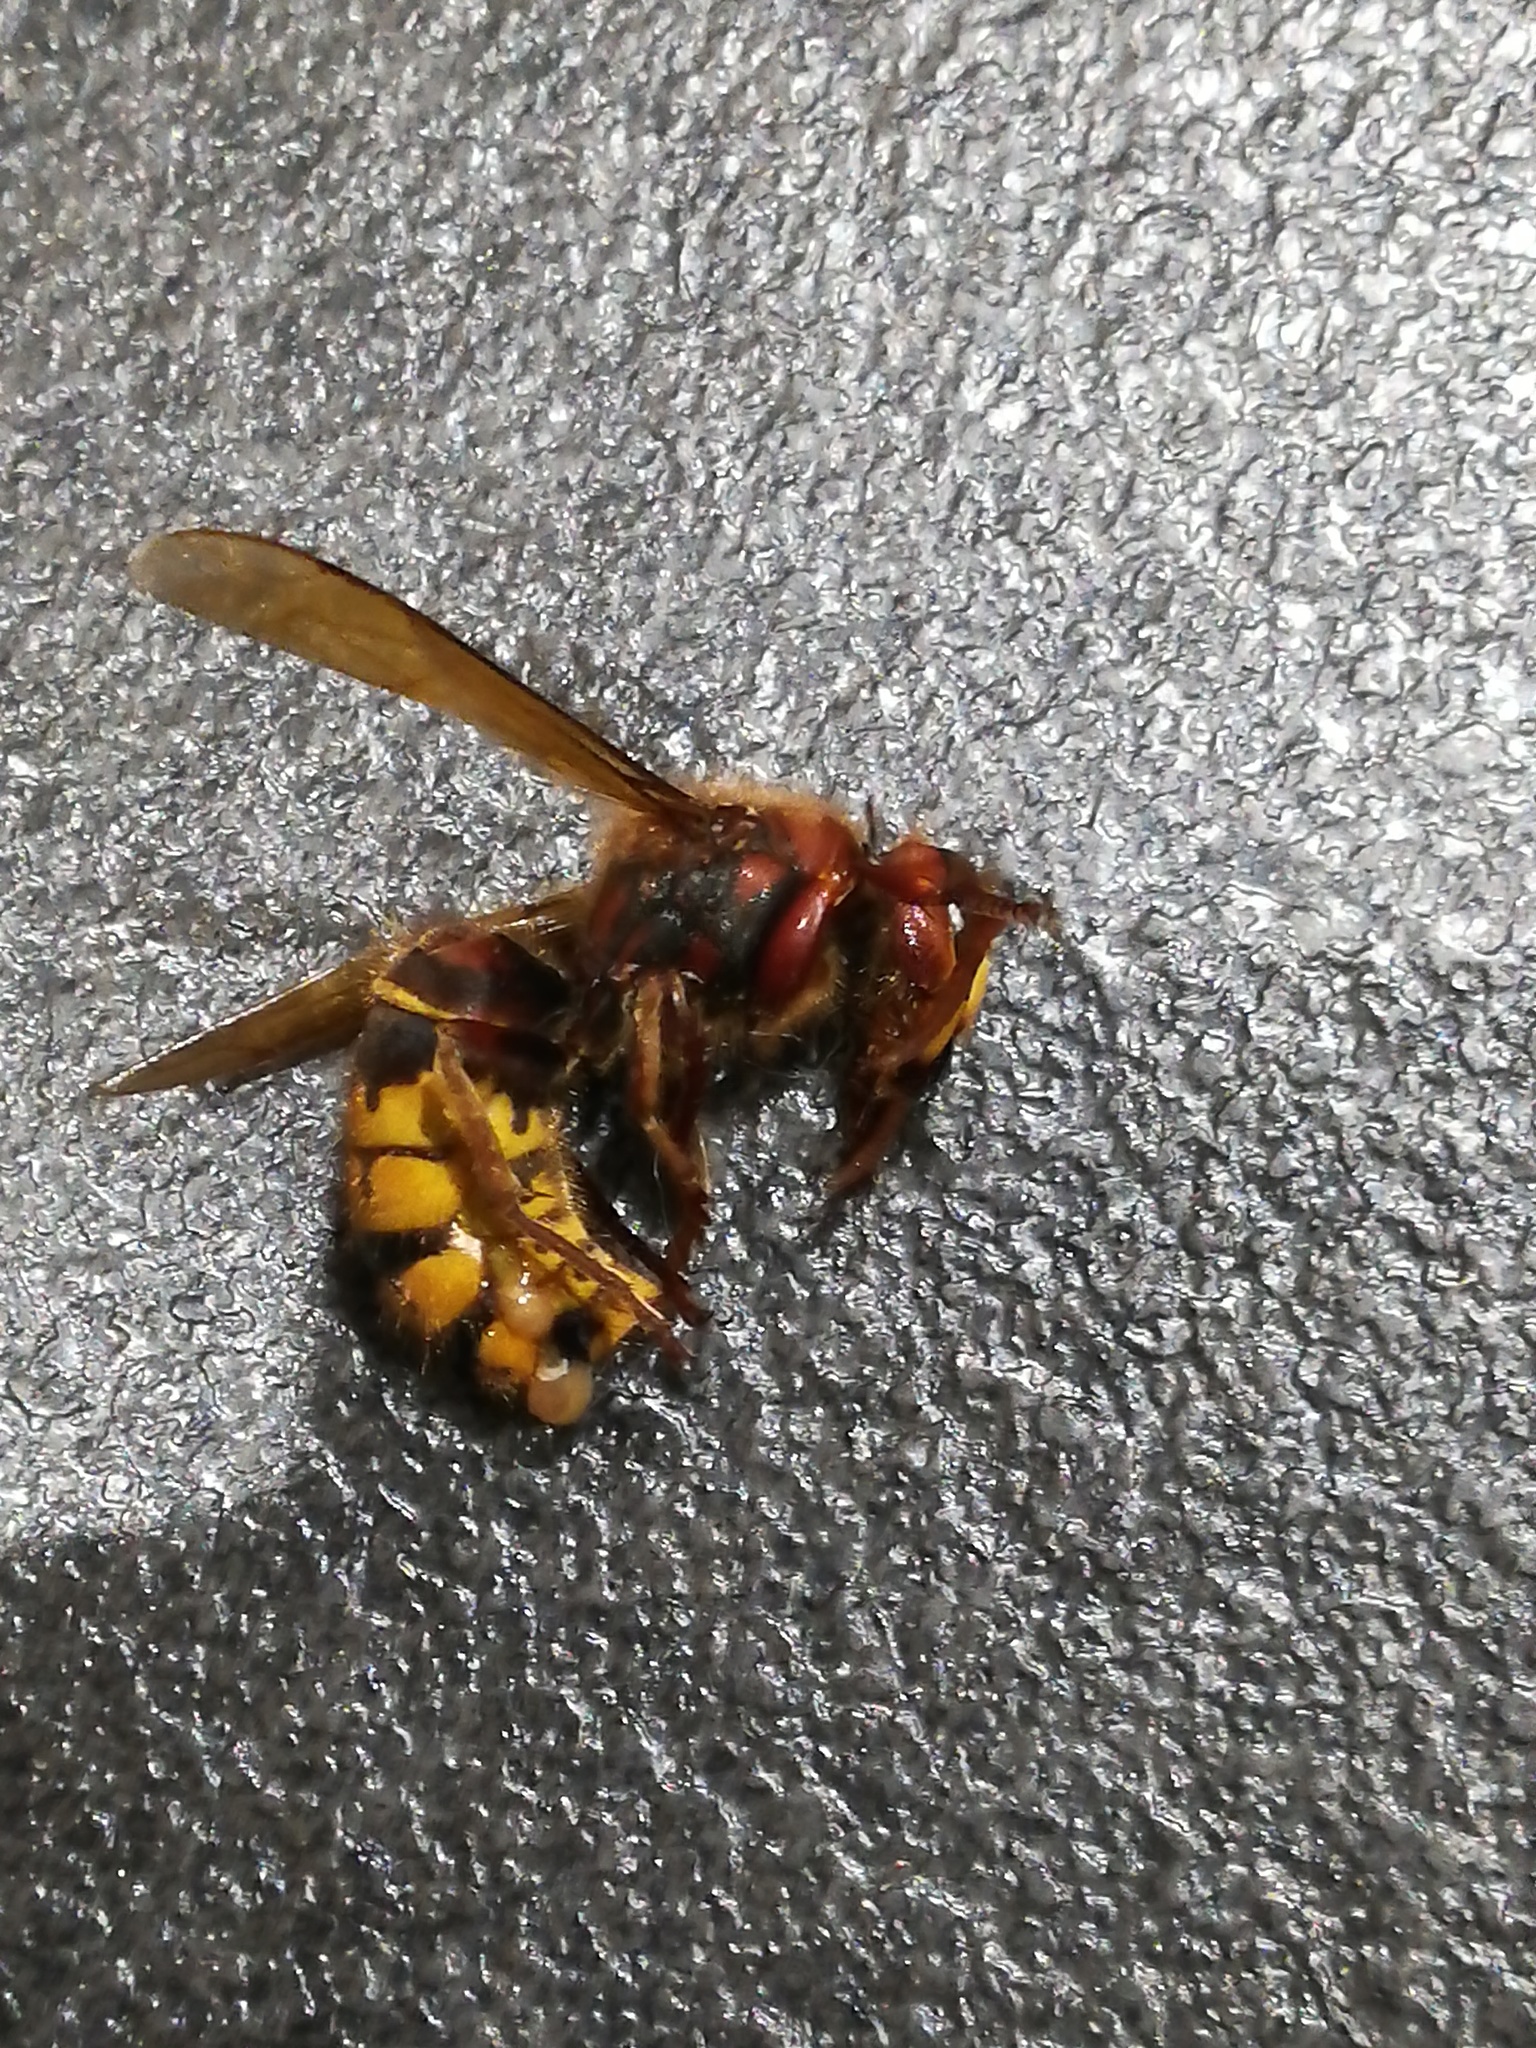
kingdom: Animalia
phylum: Arthropoda
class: Insecta
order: Hymenoptera
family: Vespidae
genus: Vespa
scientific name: Vespa crabro
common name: Hornet
